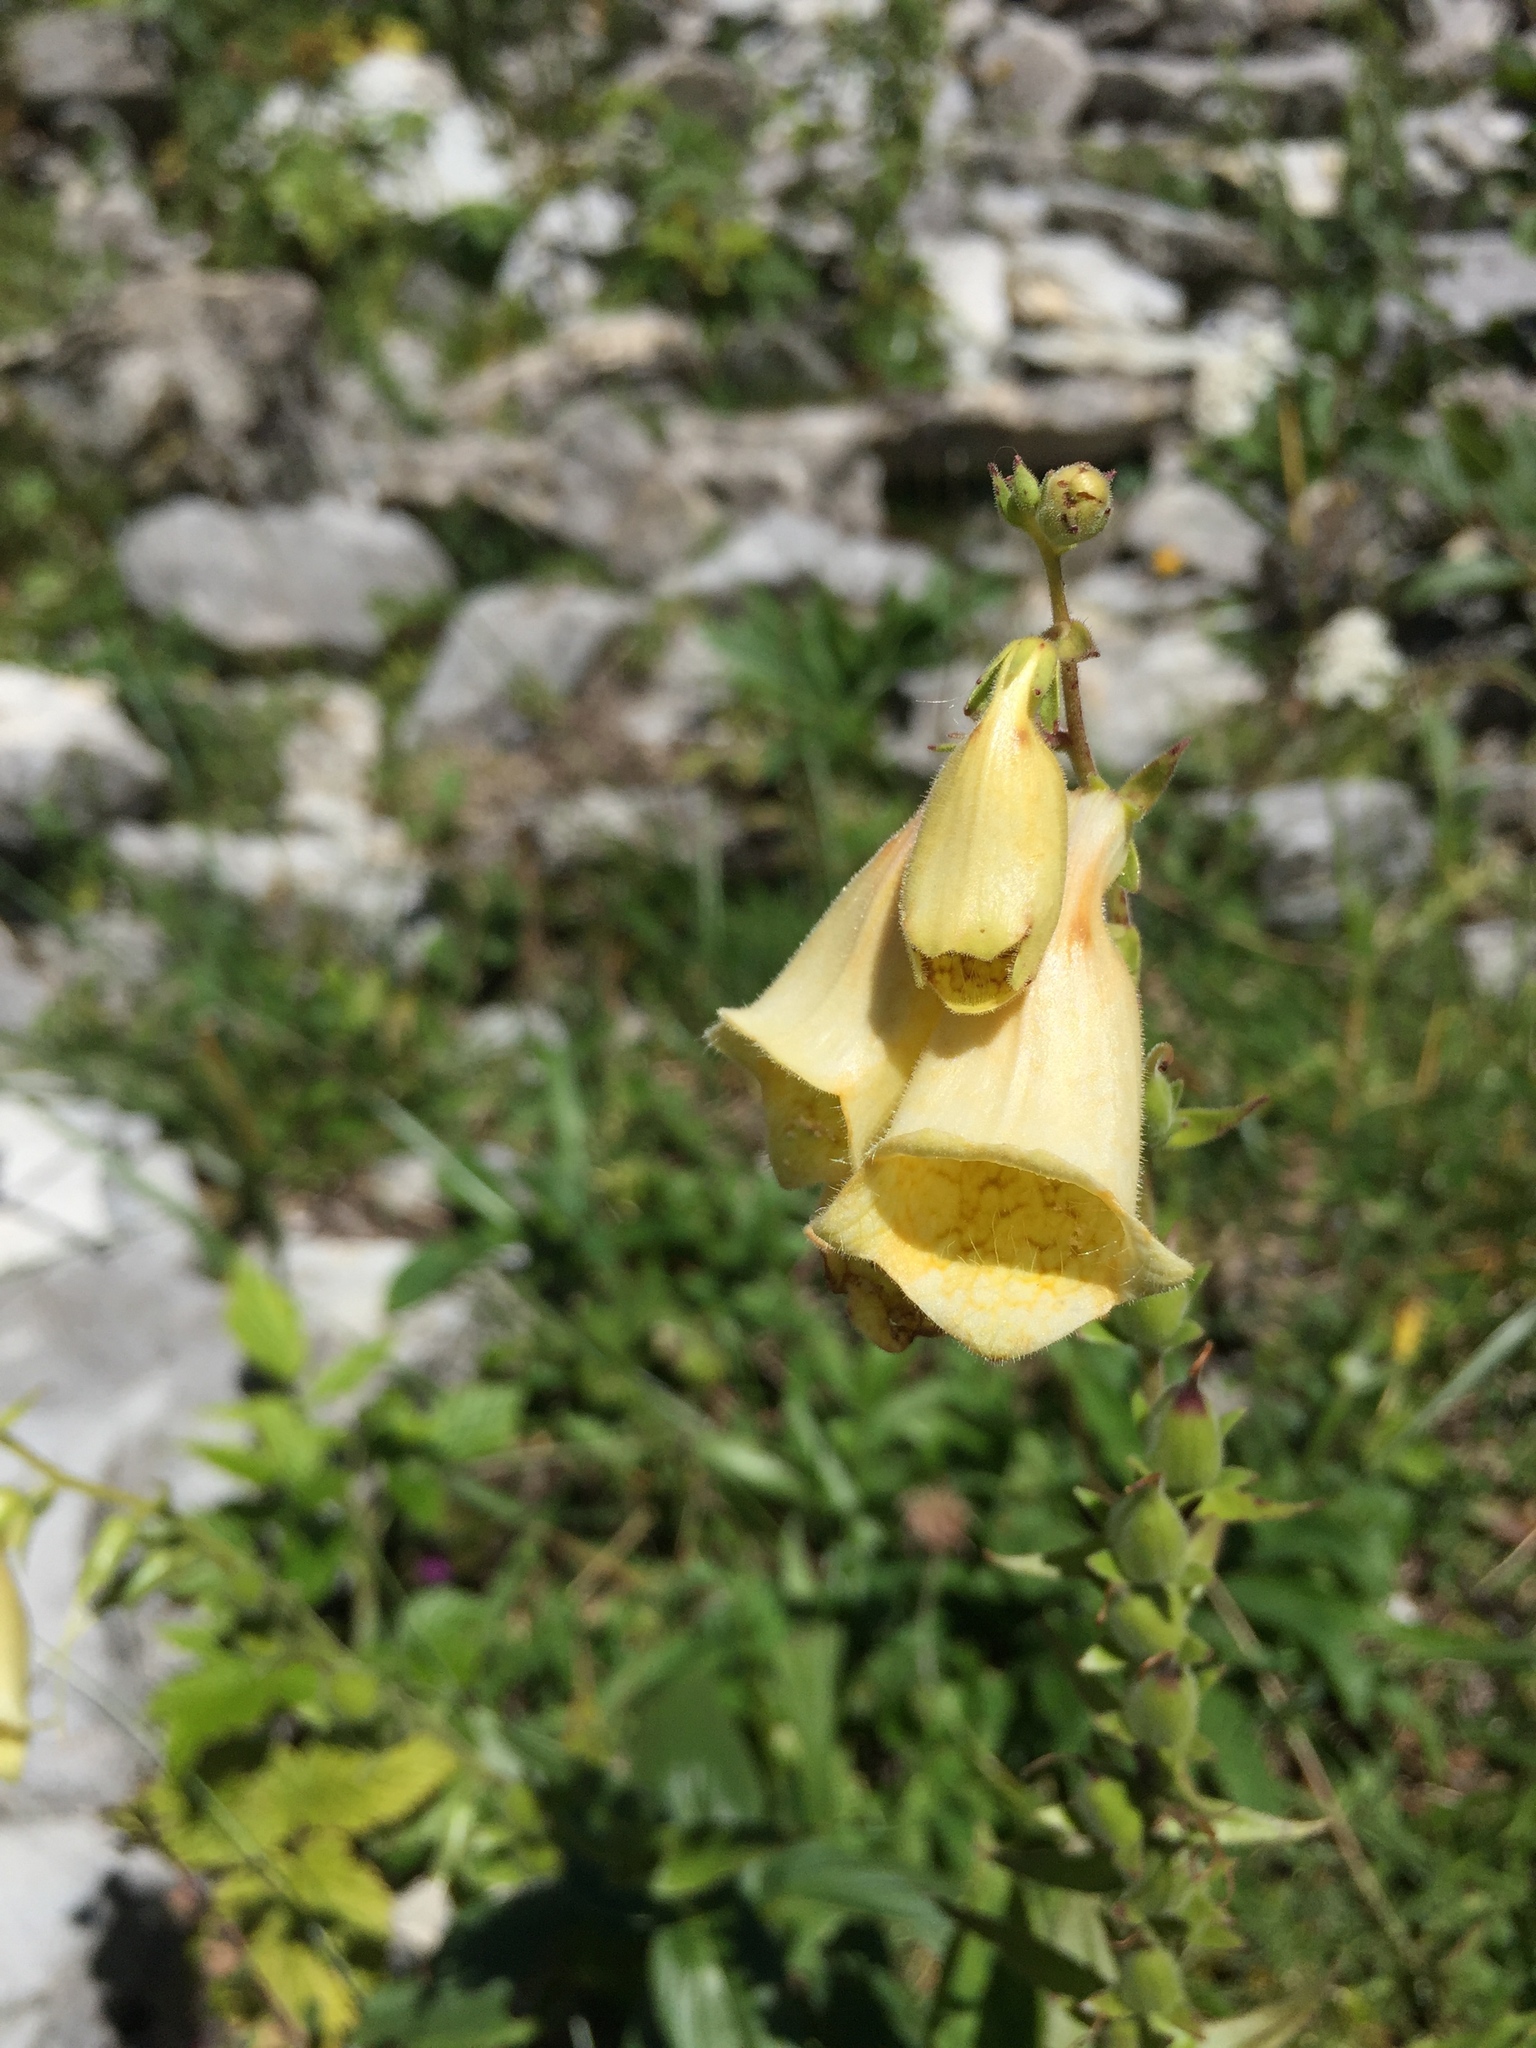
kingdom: Plantae
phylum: Tracheophyta
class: Magnoliopsida
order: Lamiales
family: Plantaginaceae
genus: Digitalis
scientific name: Digitalis grandiflora
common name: Yellow foxglove
